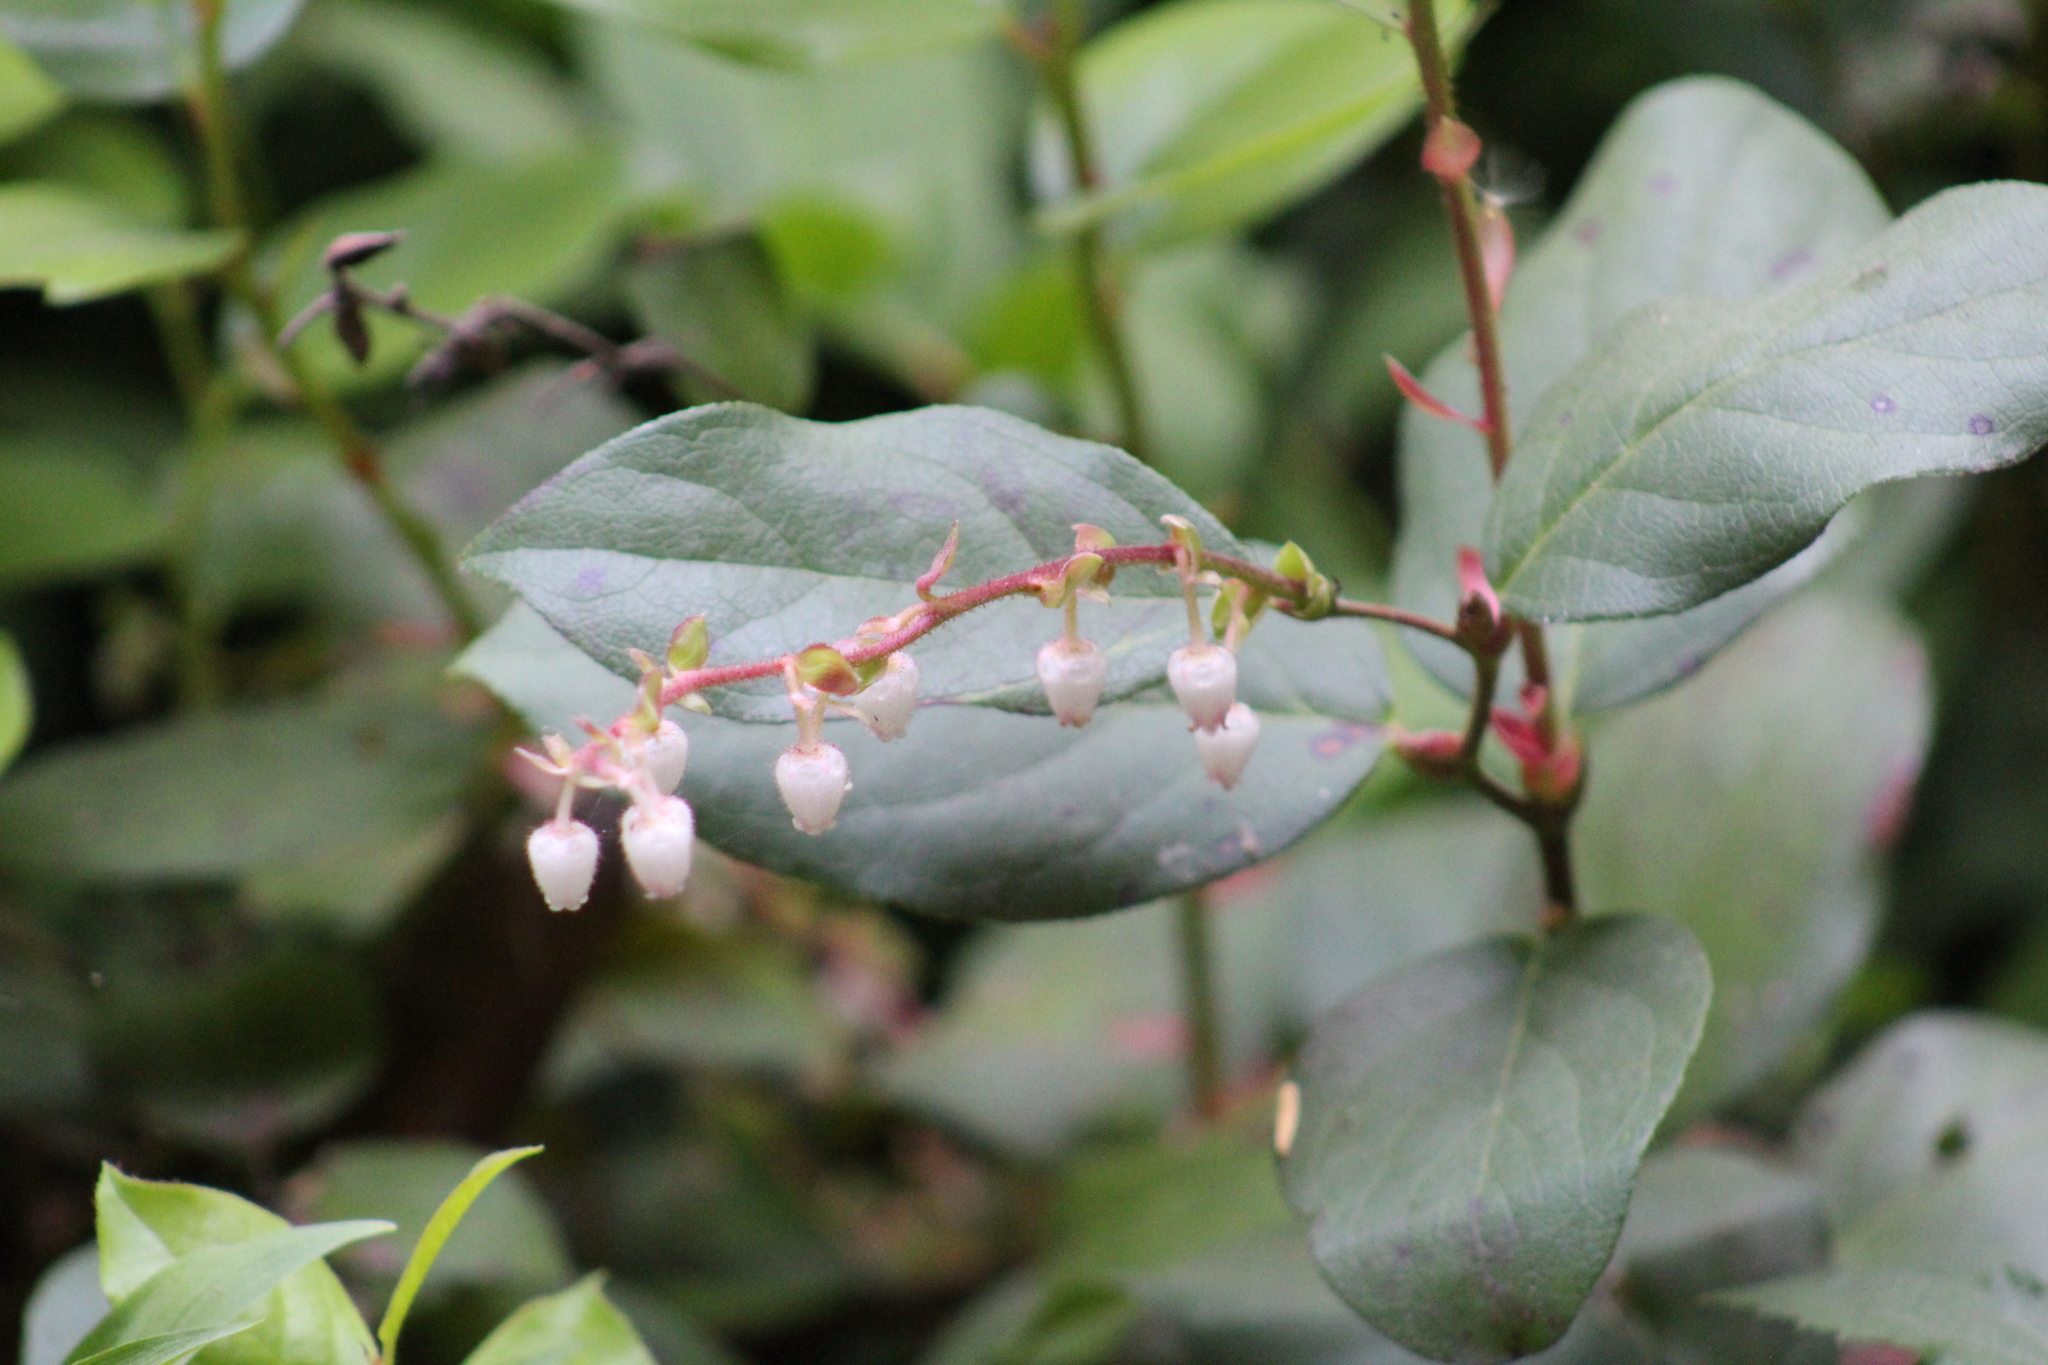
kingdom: Plantae
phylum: Tracheophyta
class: Magnoliopsida
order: Ericales
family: Ericaceae
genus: Gaultheria
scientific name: Gaultheria shallon
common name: Shallon
